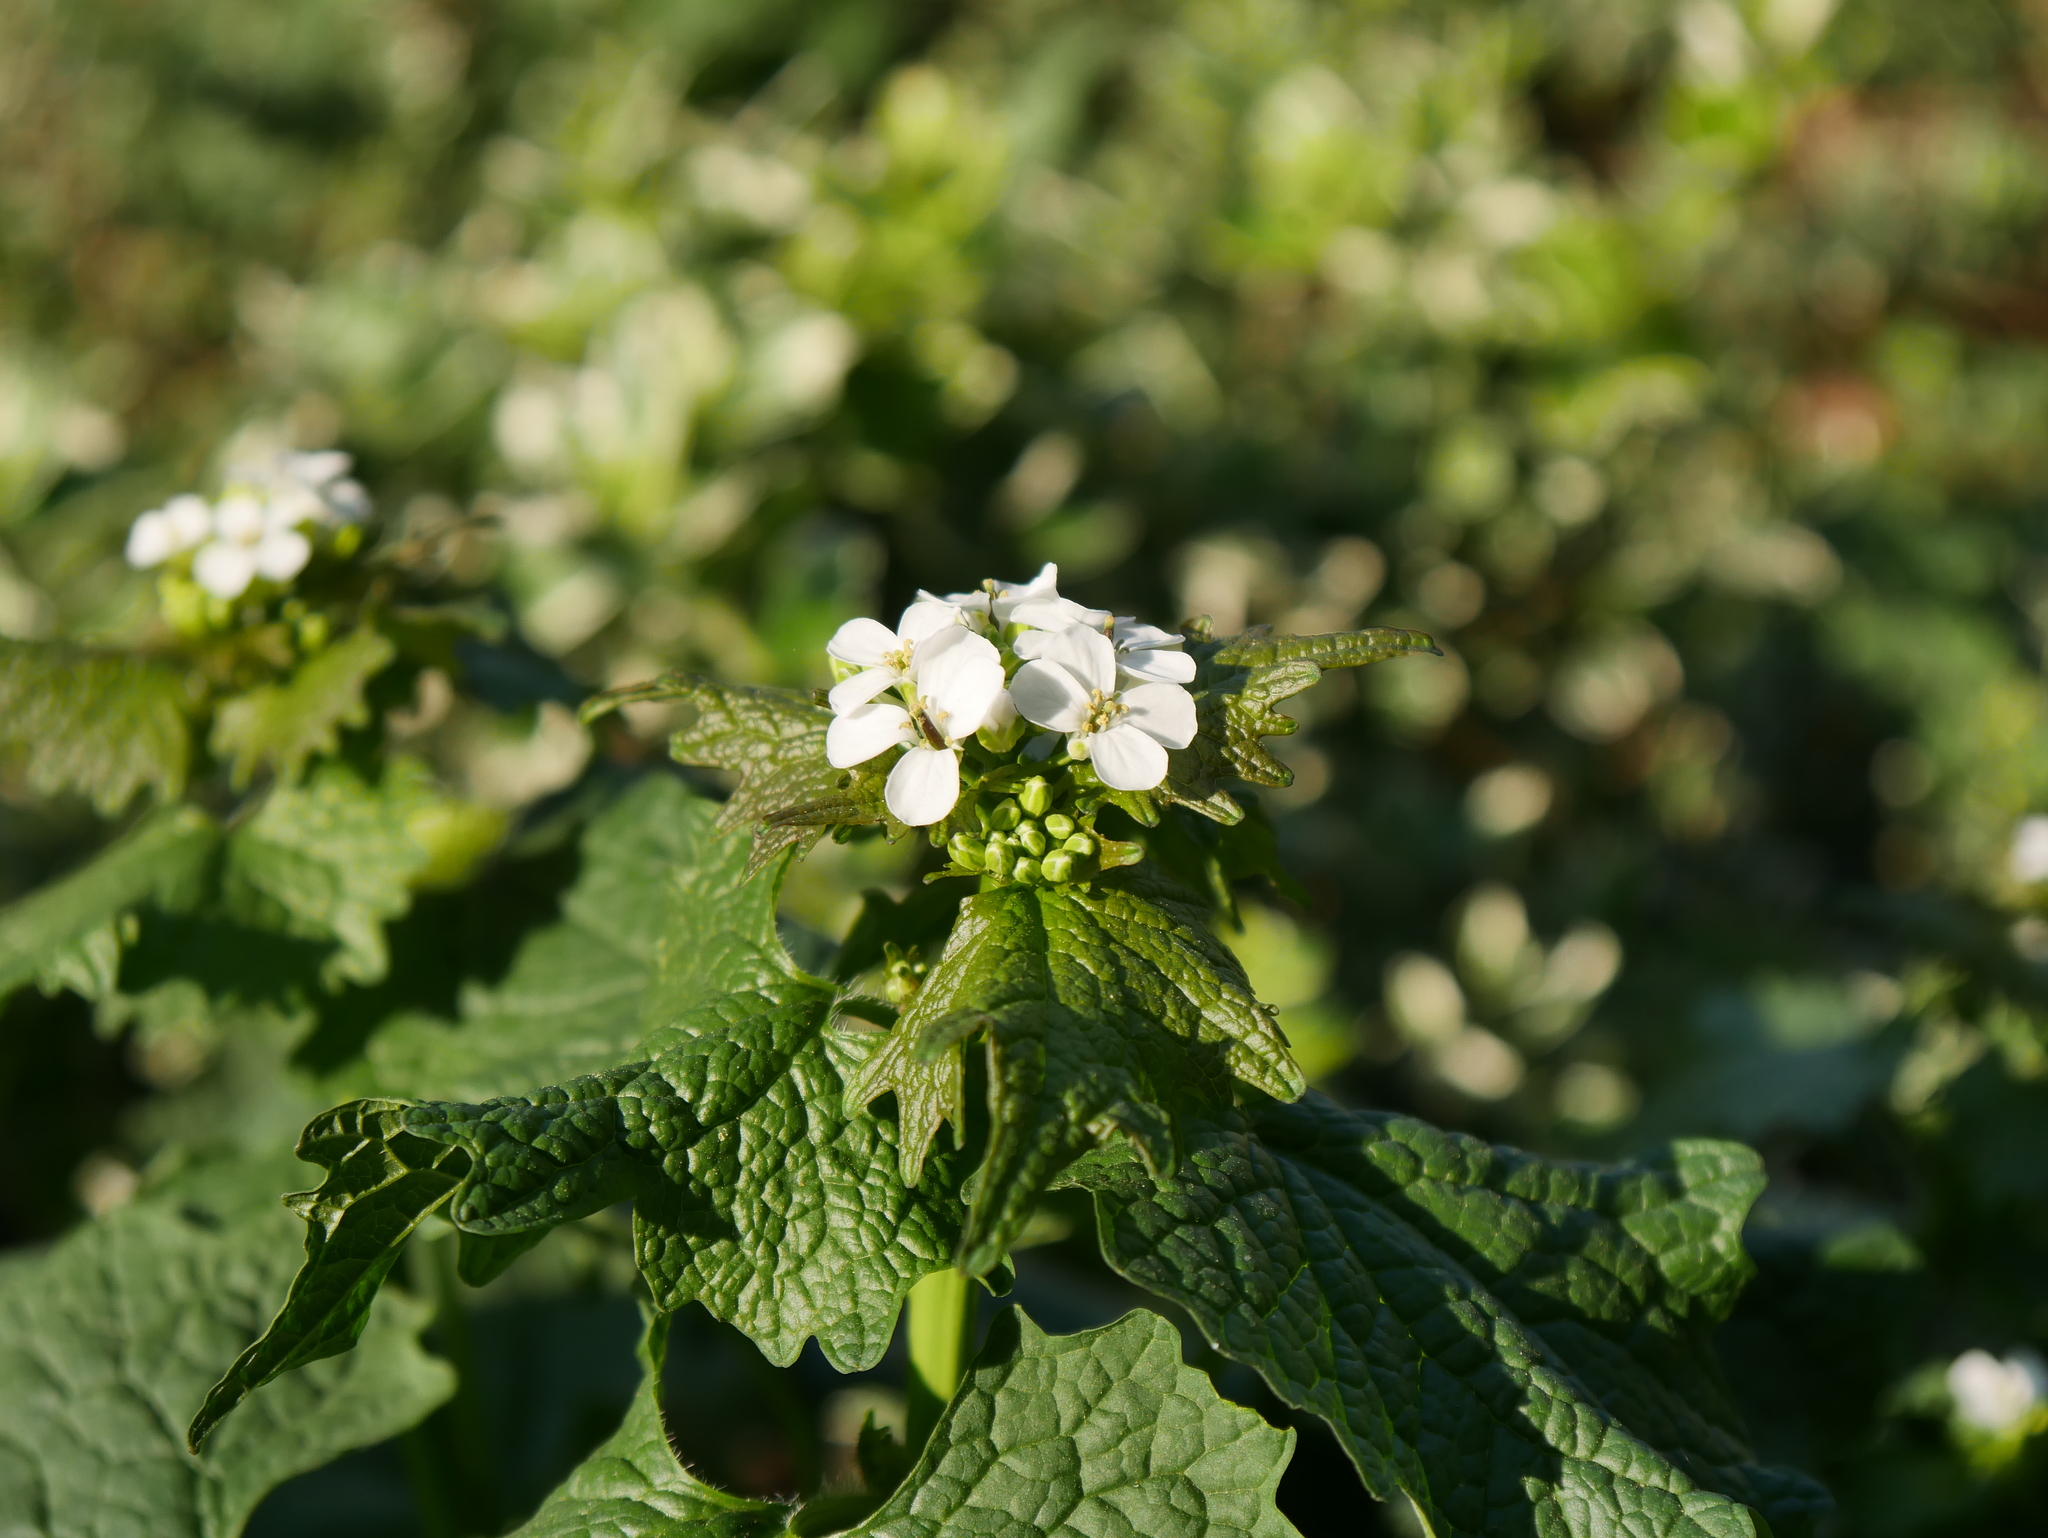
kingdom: Plantae
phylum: Tracheophyta
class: Magnoliopsida
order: Brassicales
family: Brassicaceae
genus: Alliaria
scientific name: Alliaria petiolata
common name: Garlic mustard
